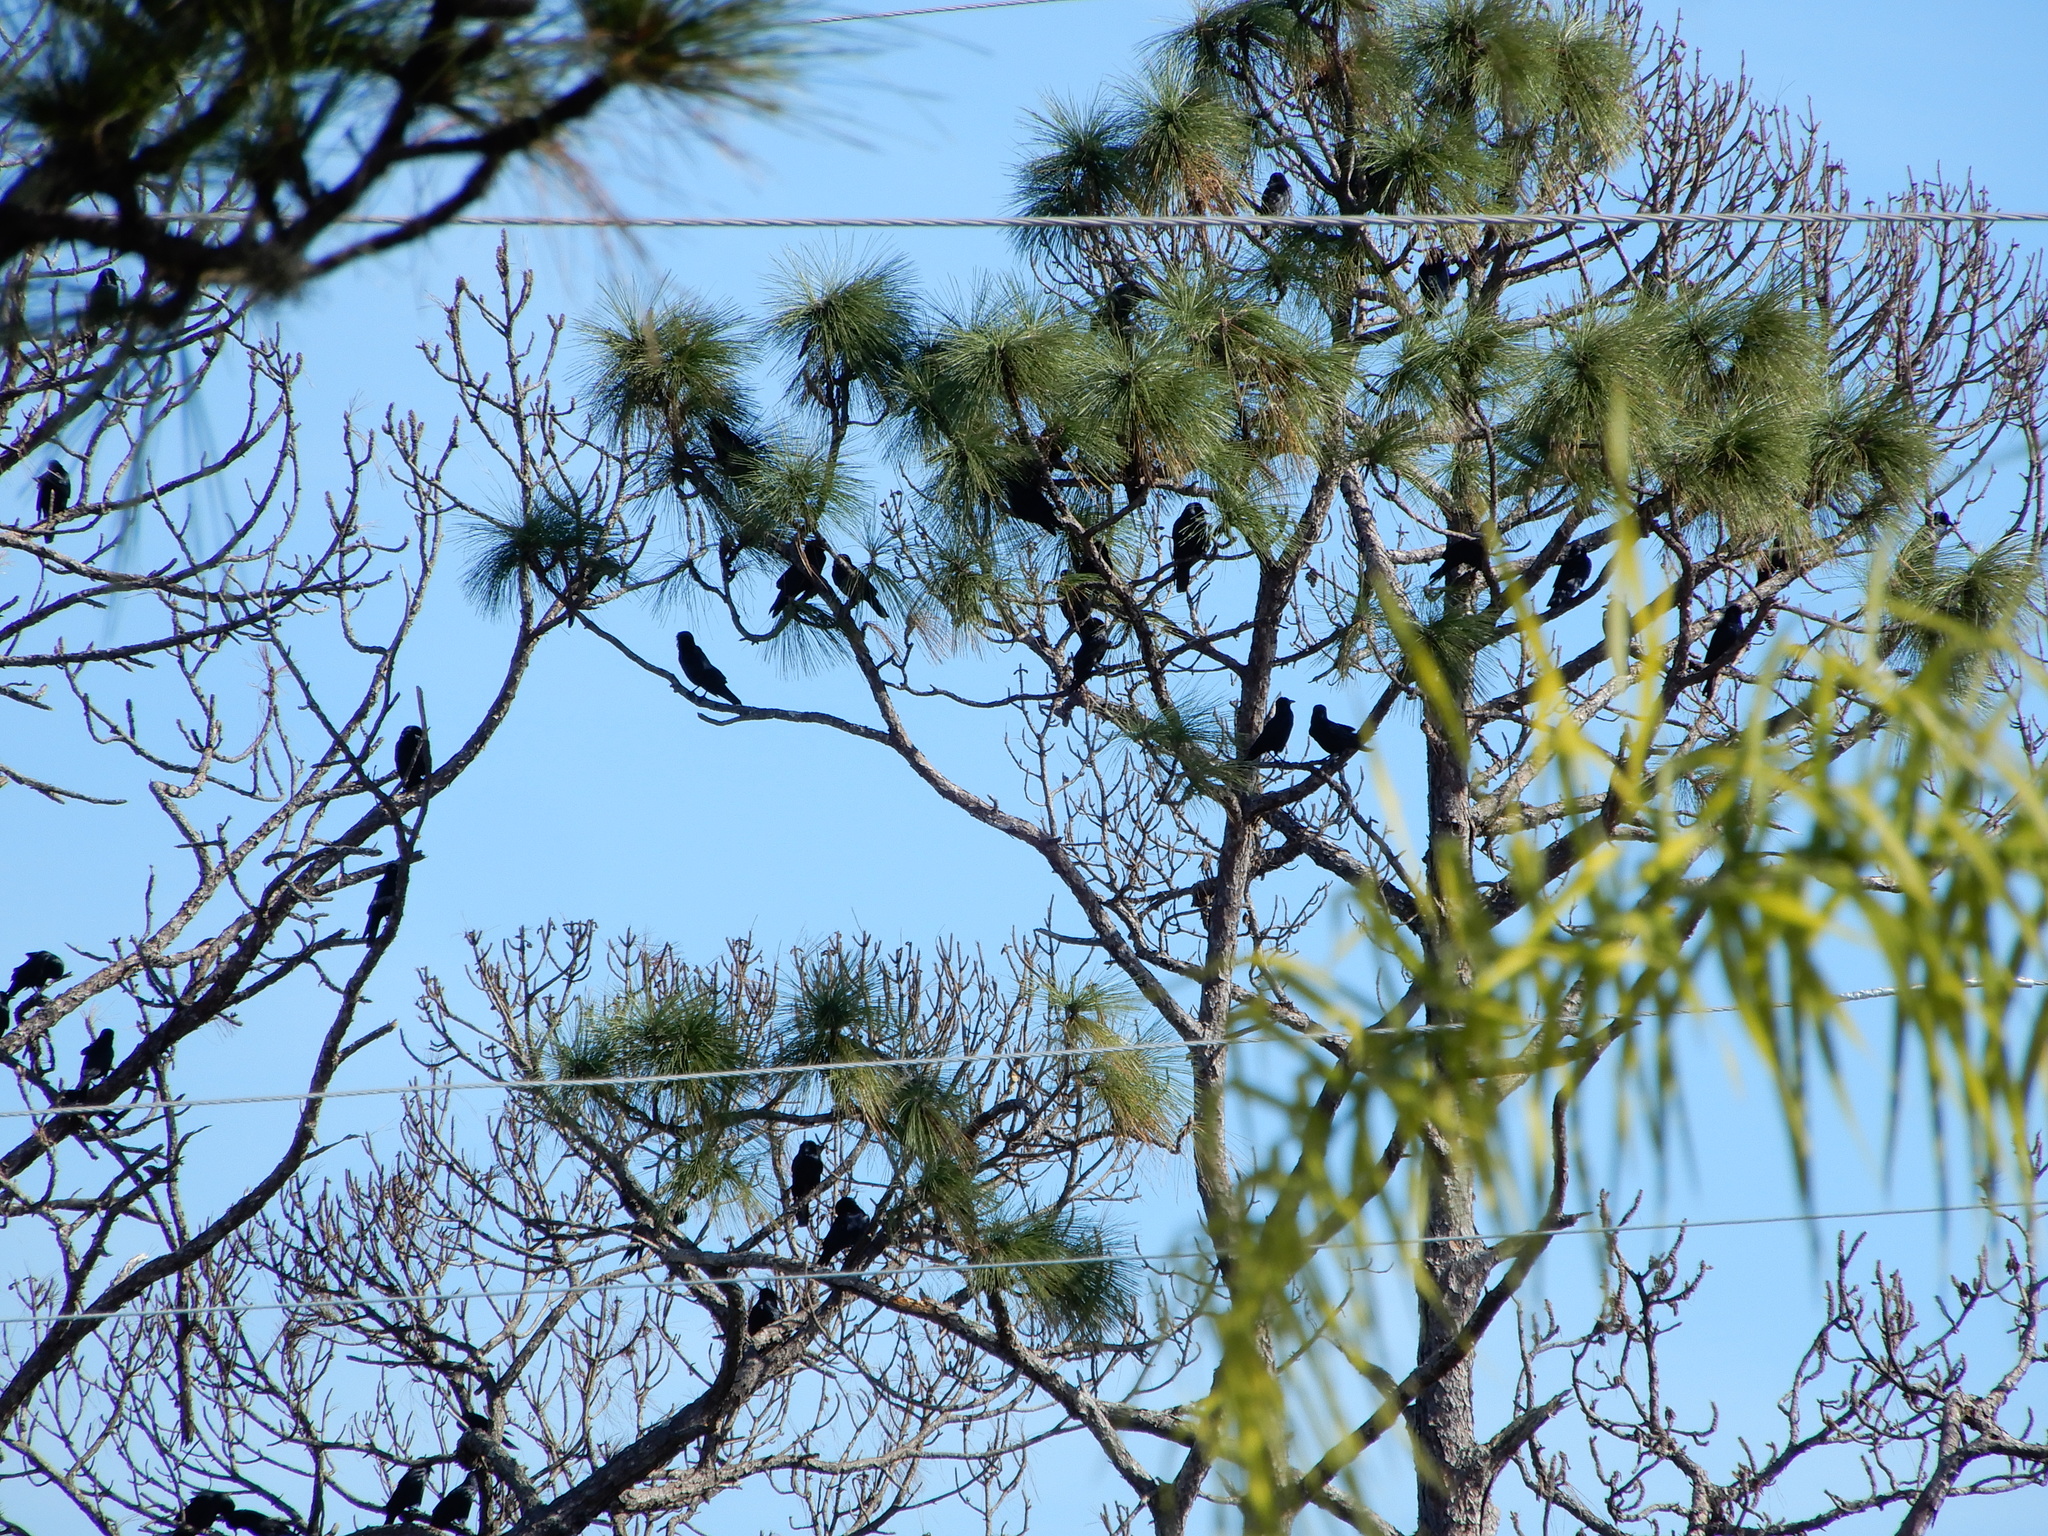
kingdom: Animalia
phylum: Chordata
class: Aves
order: Passeriformes
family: Corvidae
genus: Corvus
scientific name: Corvus ossifragus
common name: Fish crow
